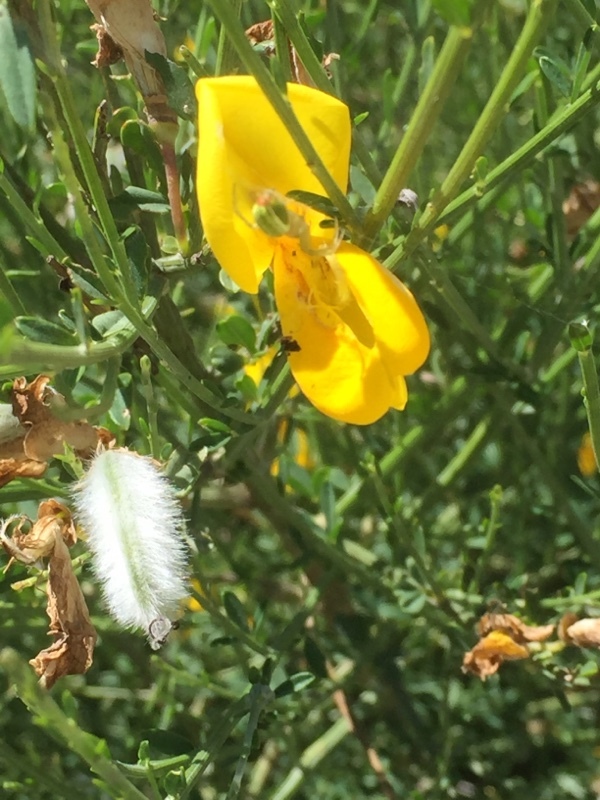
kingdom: Plantae
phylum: Tracheophyta
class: Magnoliopsida
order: Fabales
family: Fabaceae
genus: Cytisus
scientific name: Cytisus striatus
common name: Hairy-fruited broom
